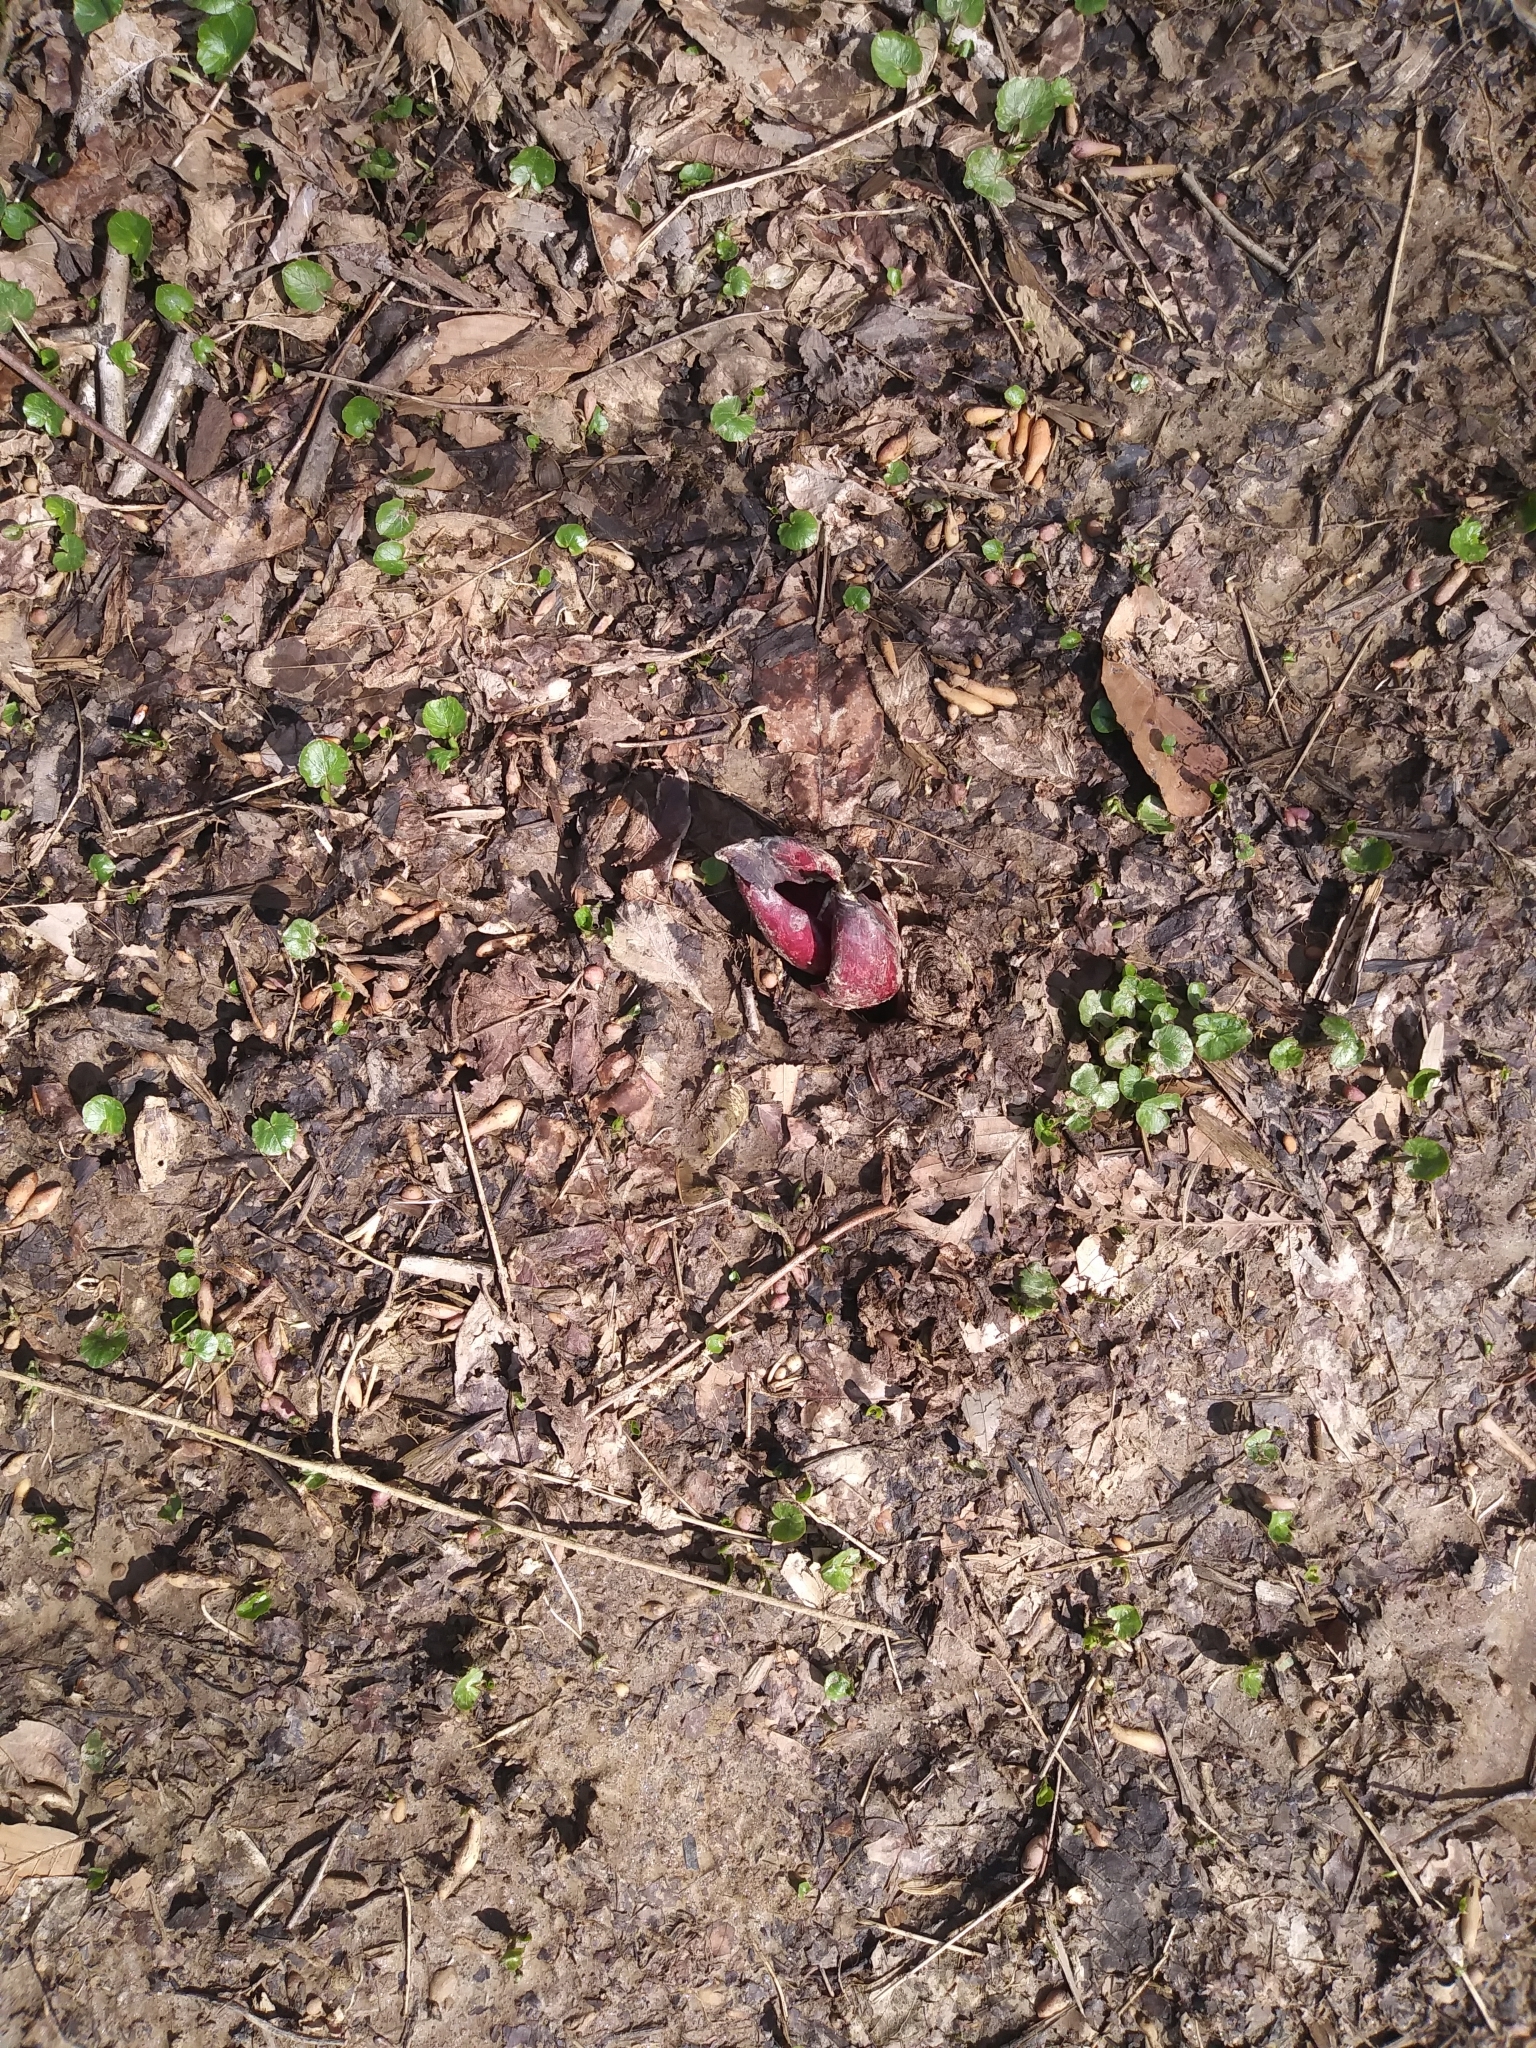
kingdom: Plantae
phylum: Tracheophyta
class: Liliopsida
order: Alismatales
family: Araceae
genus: Symplocarpus
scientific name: Symplocarpus foetidus
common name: Eastern skunk cabbage
